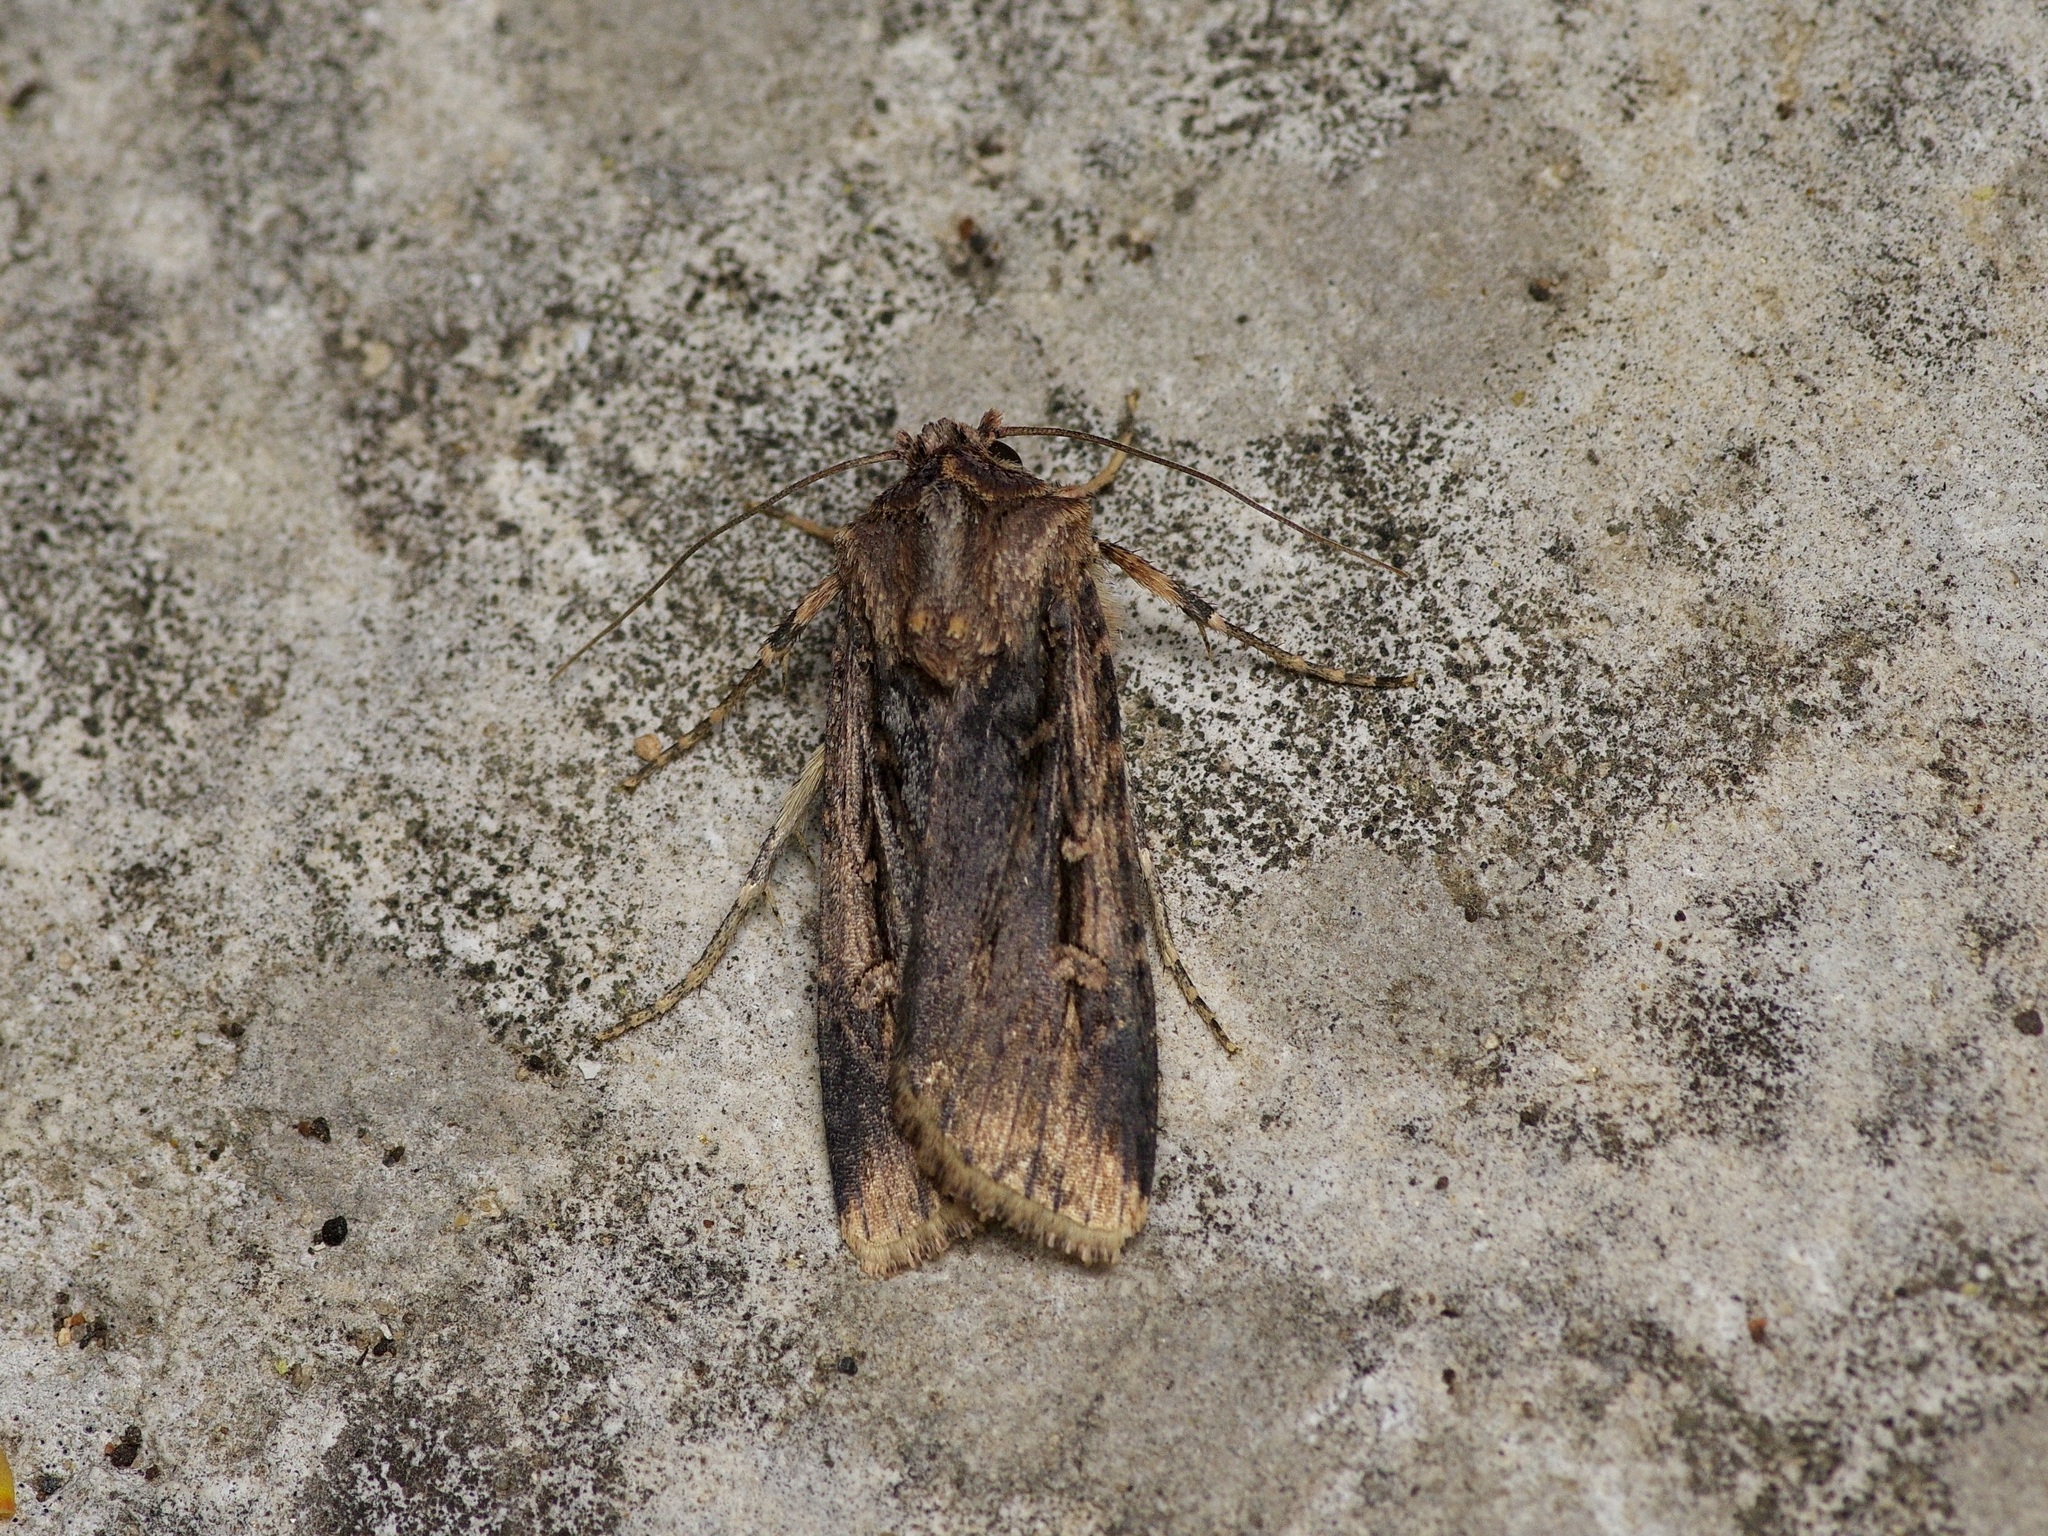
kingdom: Animalia
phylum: Arthropoda
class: Insecta
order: Lepidoptera
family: Noctuidae
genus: Feltia
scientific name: Feltia subterranea
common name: Granulate cutworm
